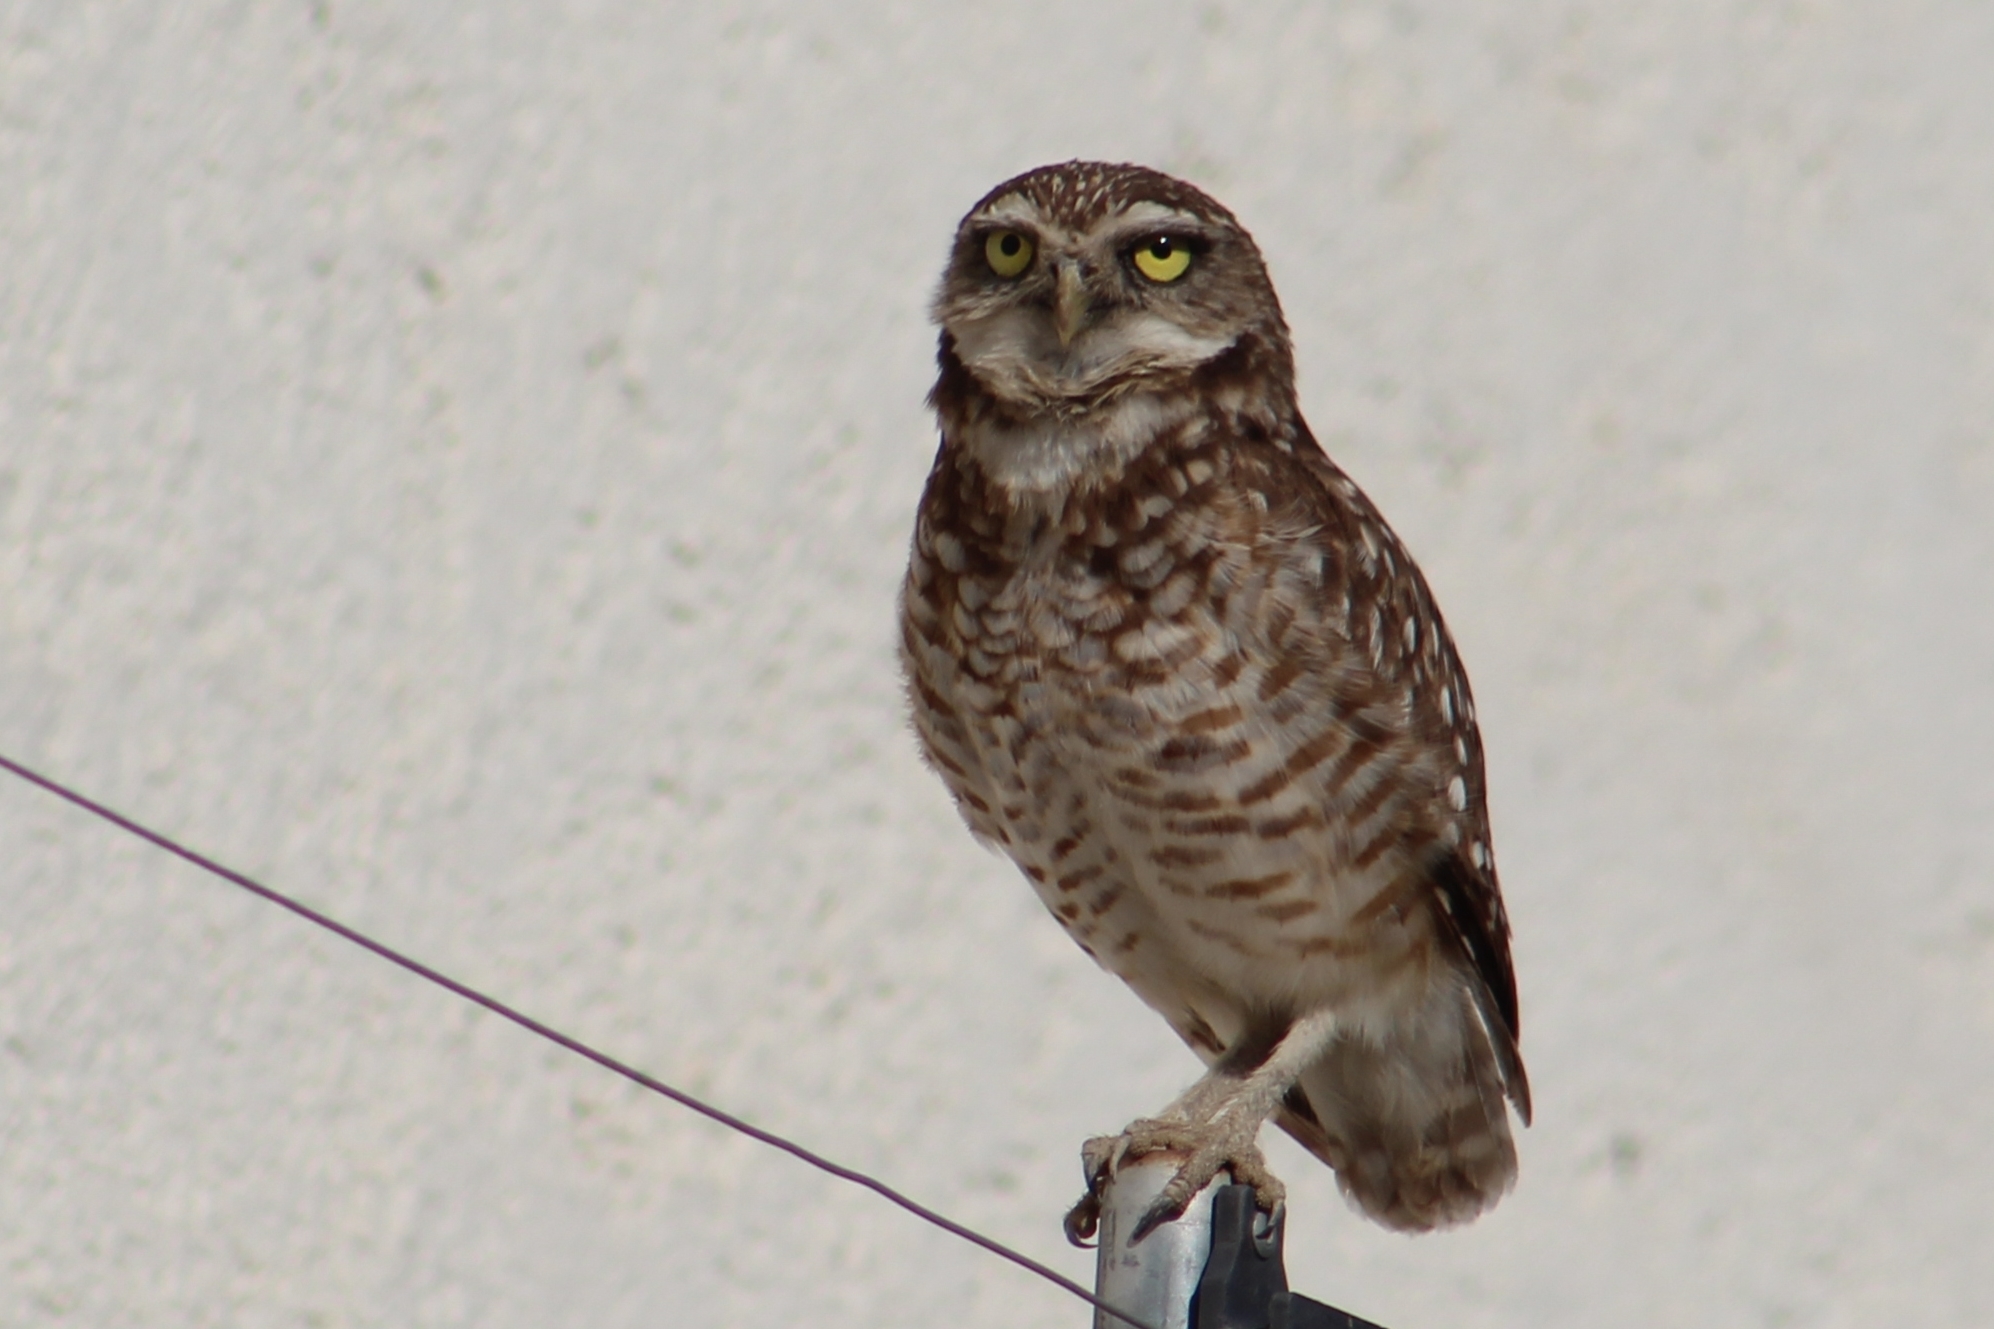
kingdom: Animalia
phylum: Chordata
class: Aves
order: Strigiformes
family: Strigidae
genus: Athene
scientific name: Athene cunicularia
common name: Burrowing owl
